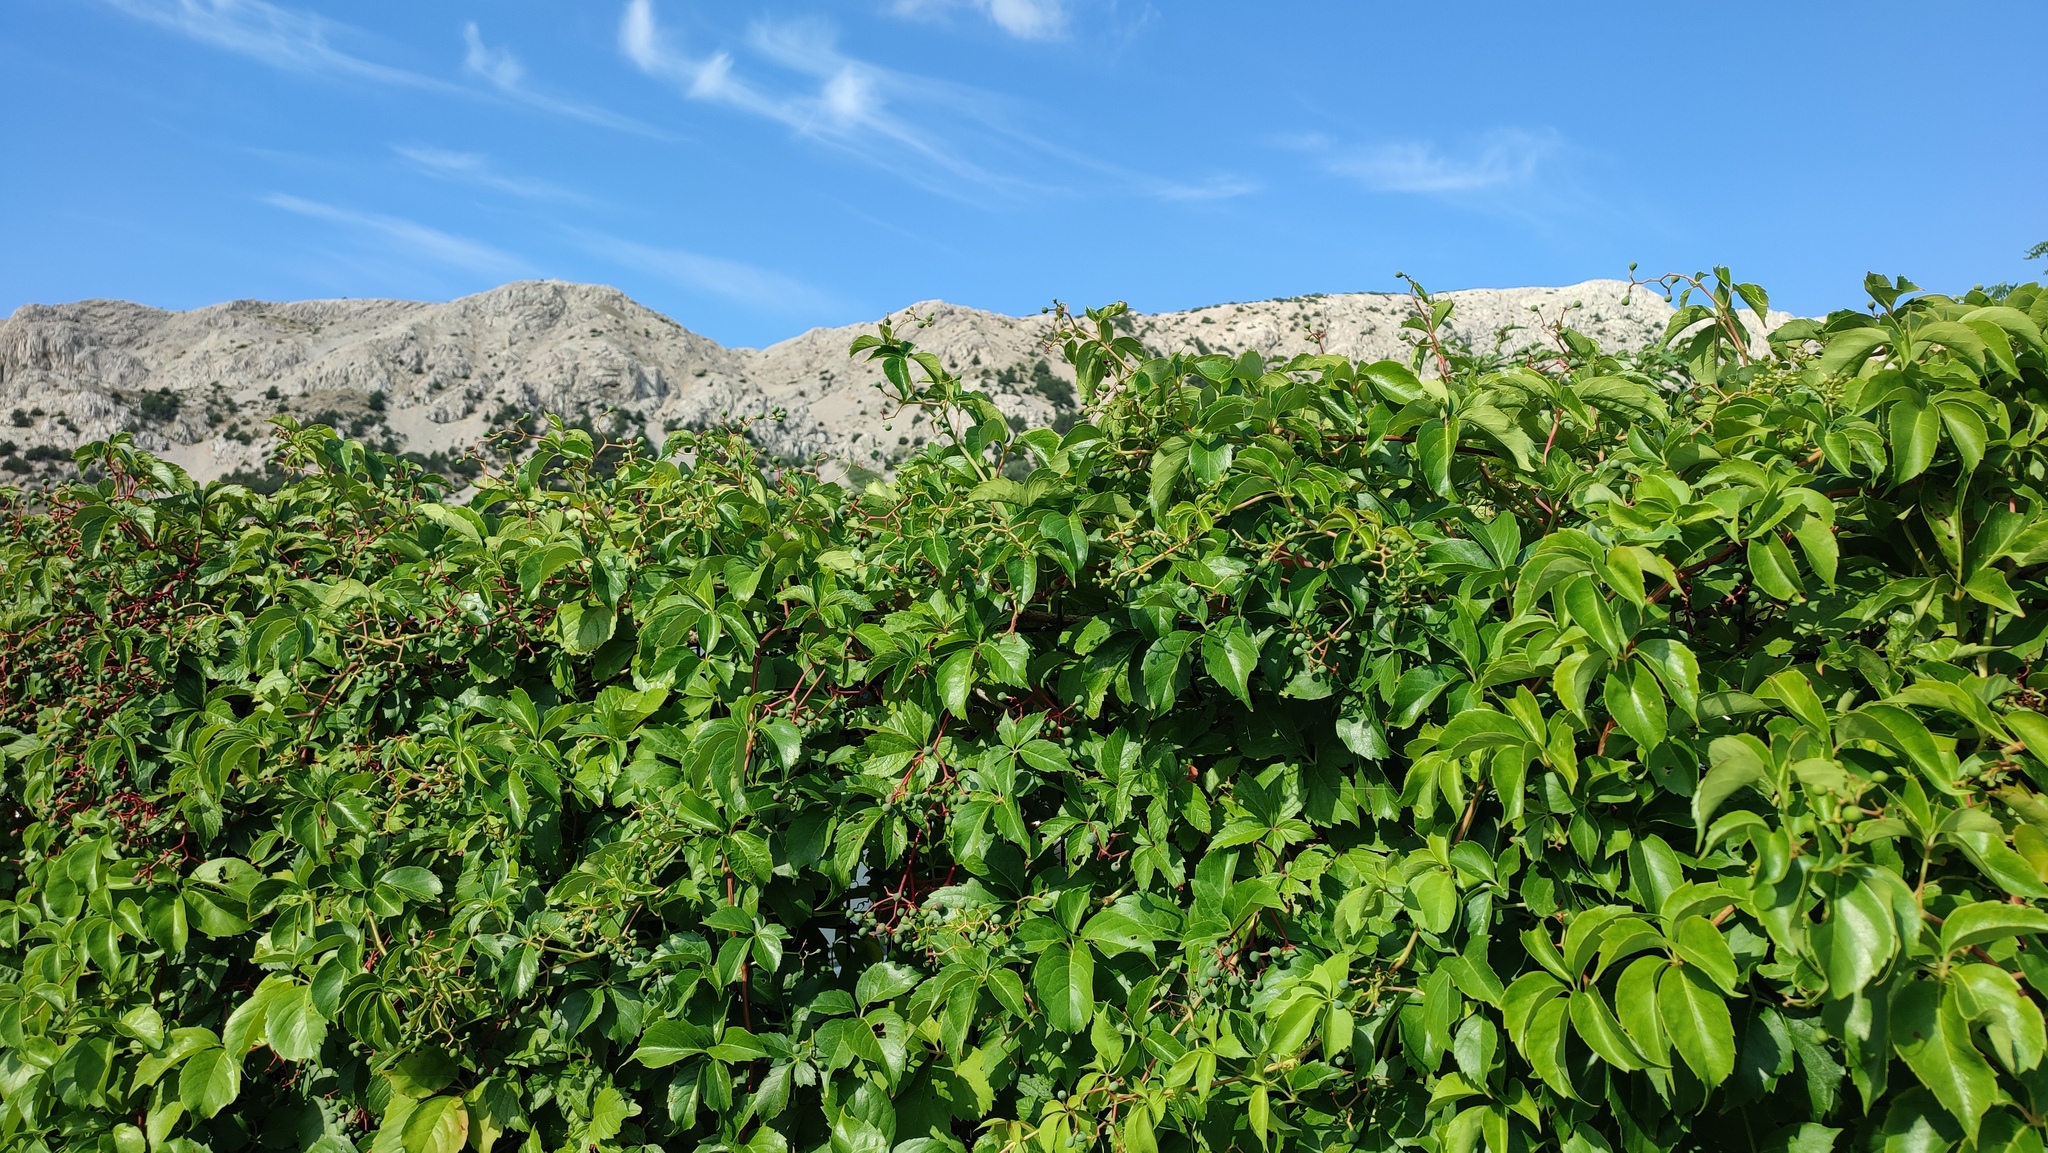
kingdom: Plantae
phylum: Tracheophyta
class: Magnoliopsida
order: Vitales
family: Vitaceae
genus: Parthenocissus
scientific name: Parthenocissus quinquefolia
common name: Virginia-creeper
